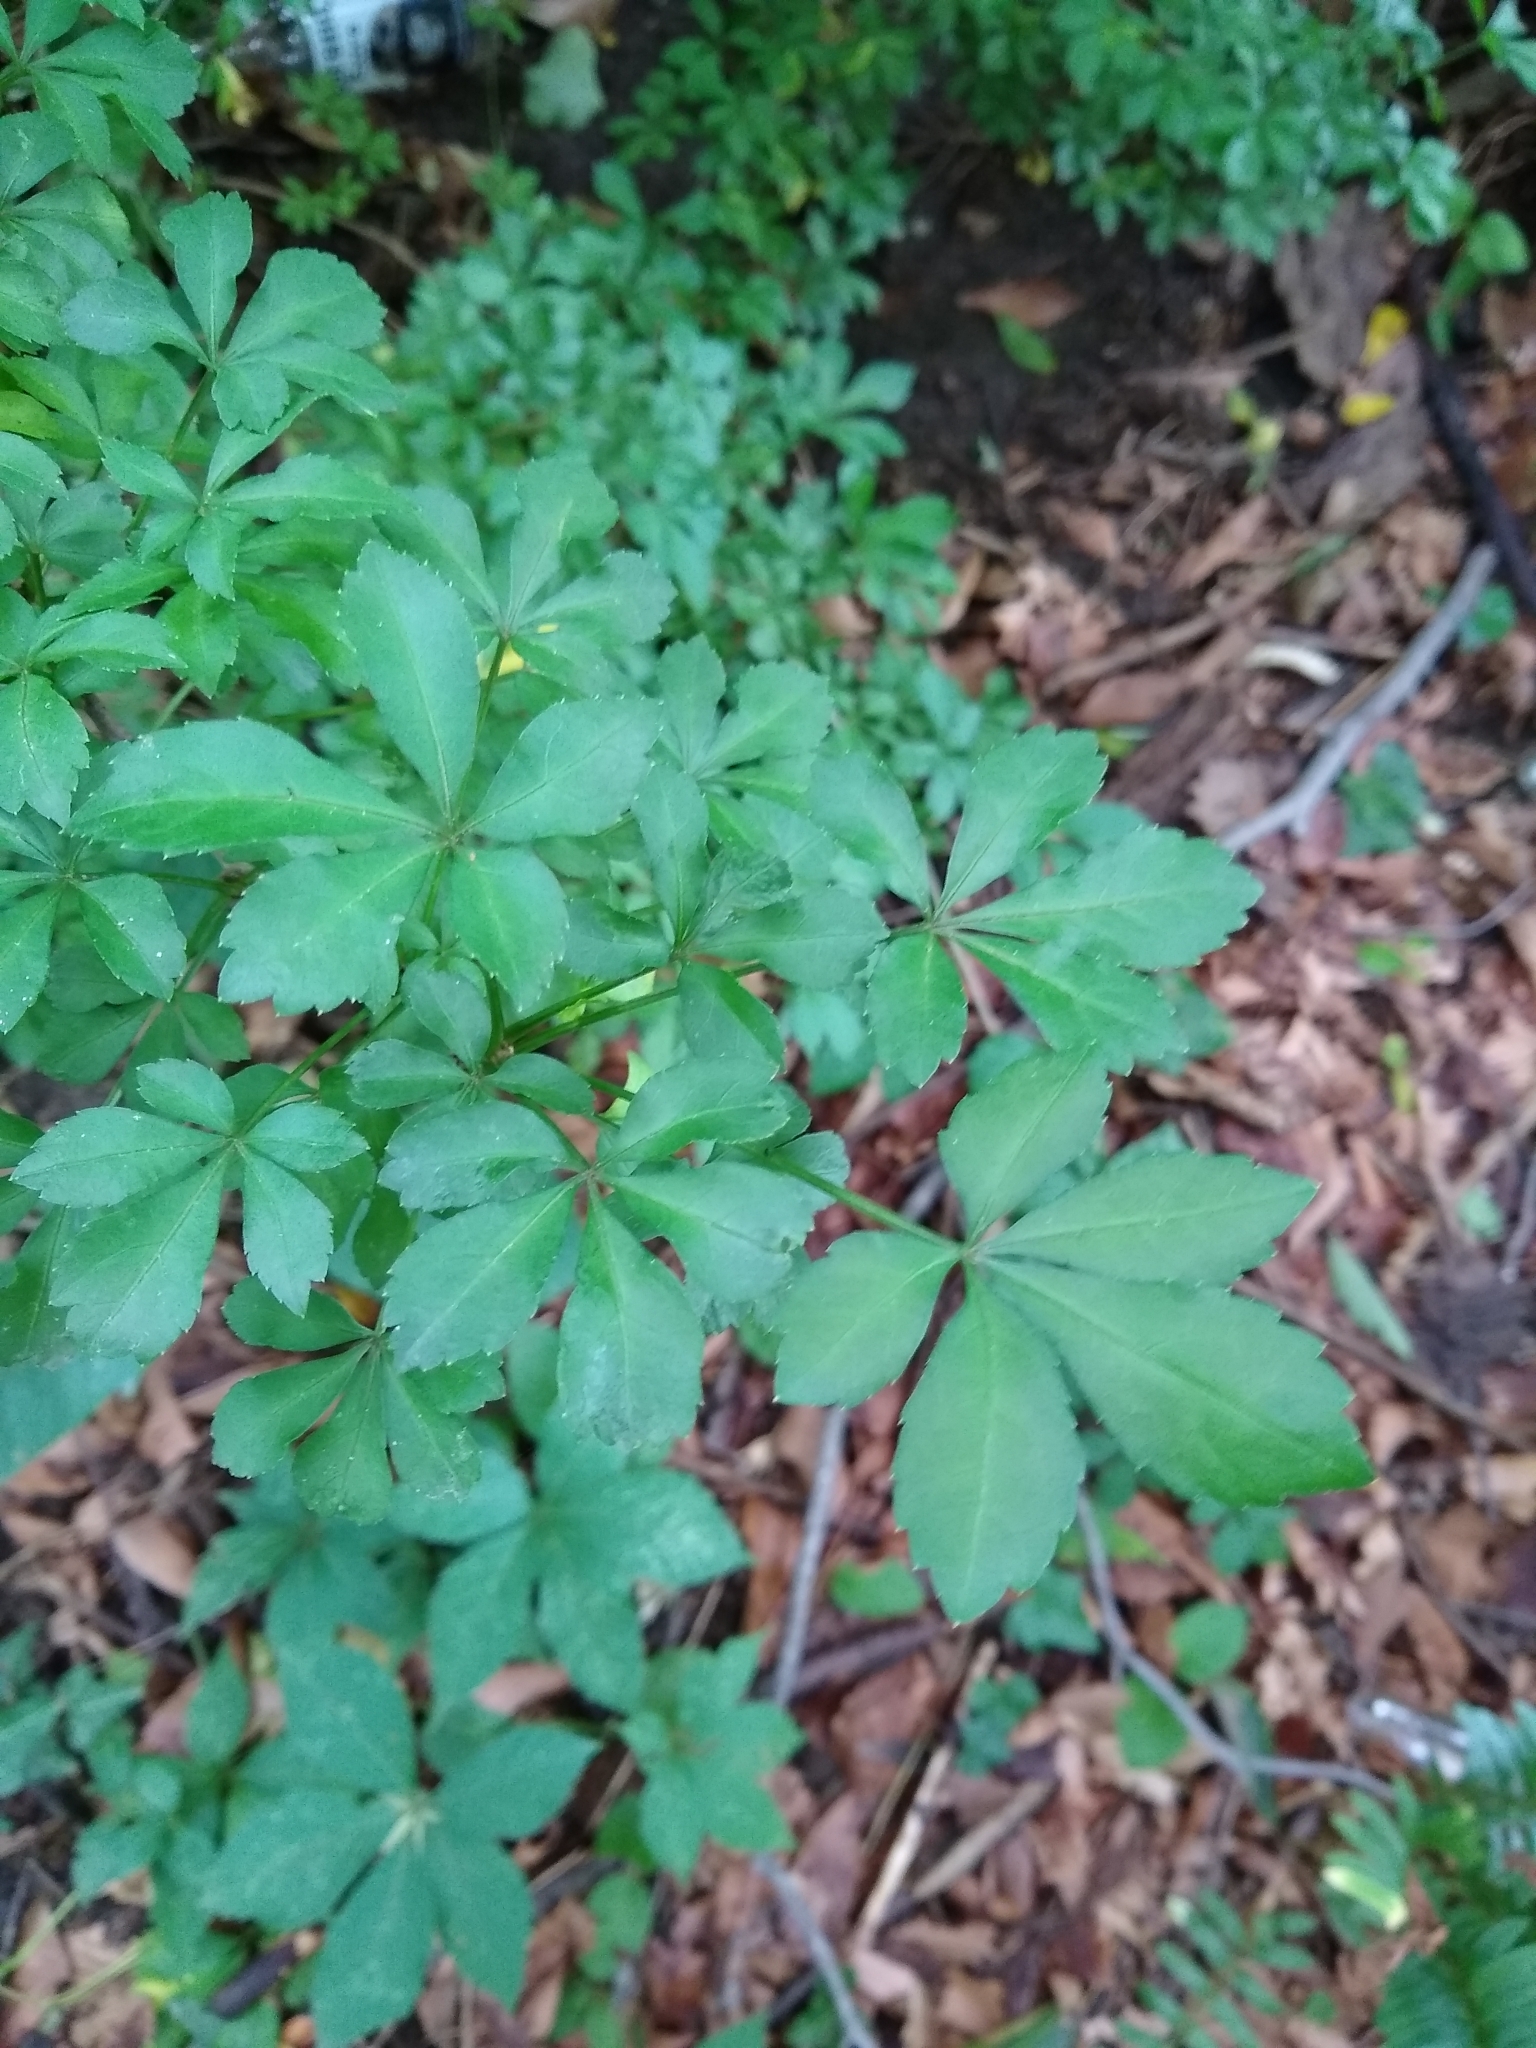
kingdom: Plantae
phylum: Tracheophyta
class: Magnoliopsida
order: Apiales
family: Araliaceae
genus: Eleutherococcus
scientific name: Eleutherococcus sieboldianus
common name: Ginseng
